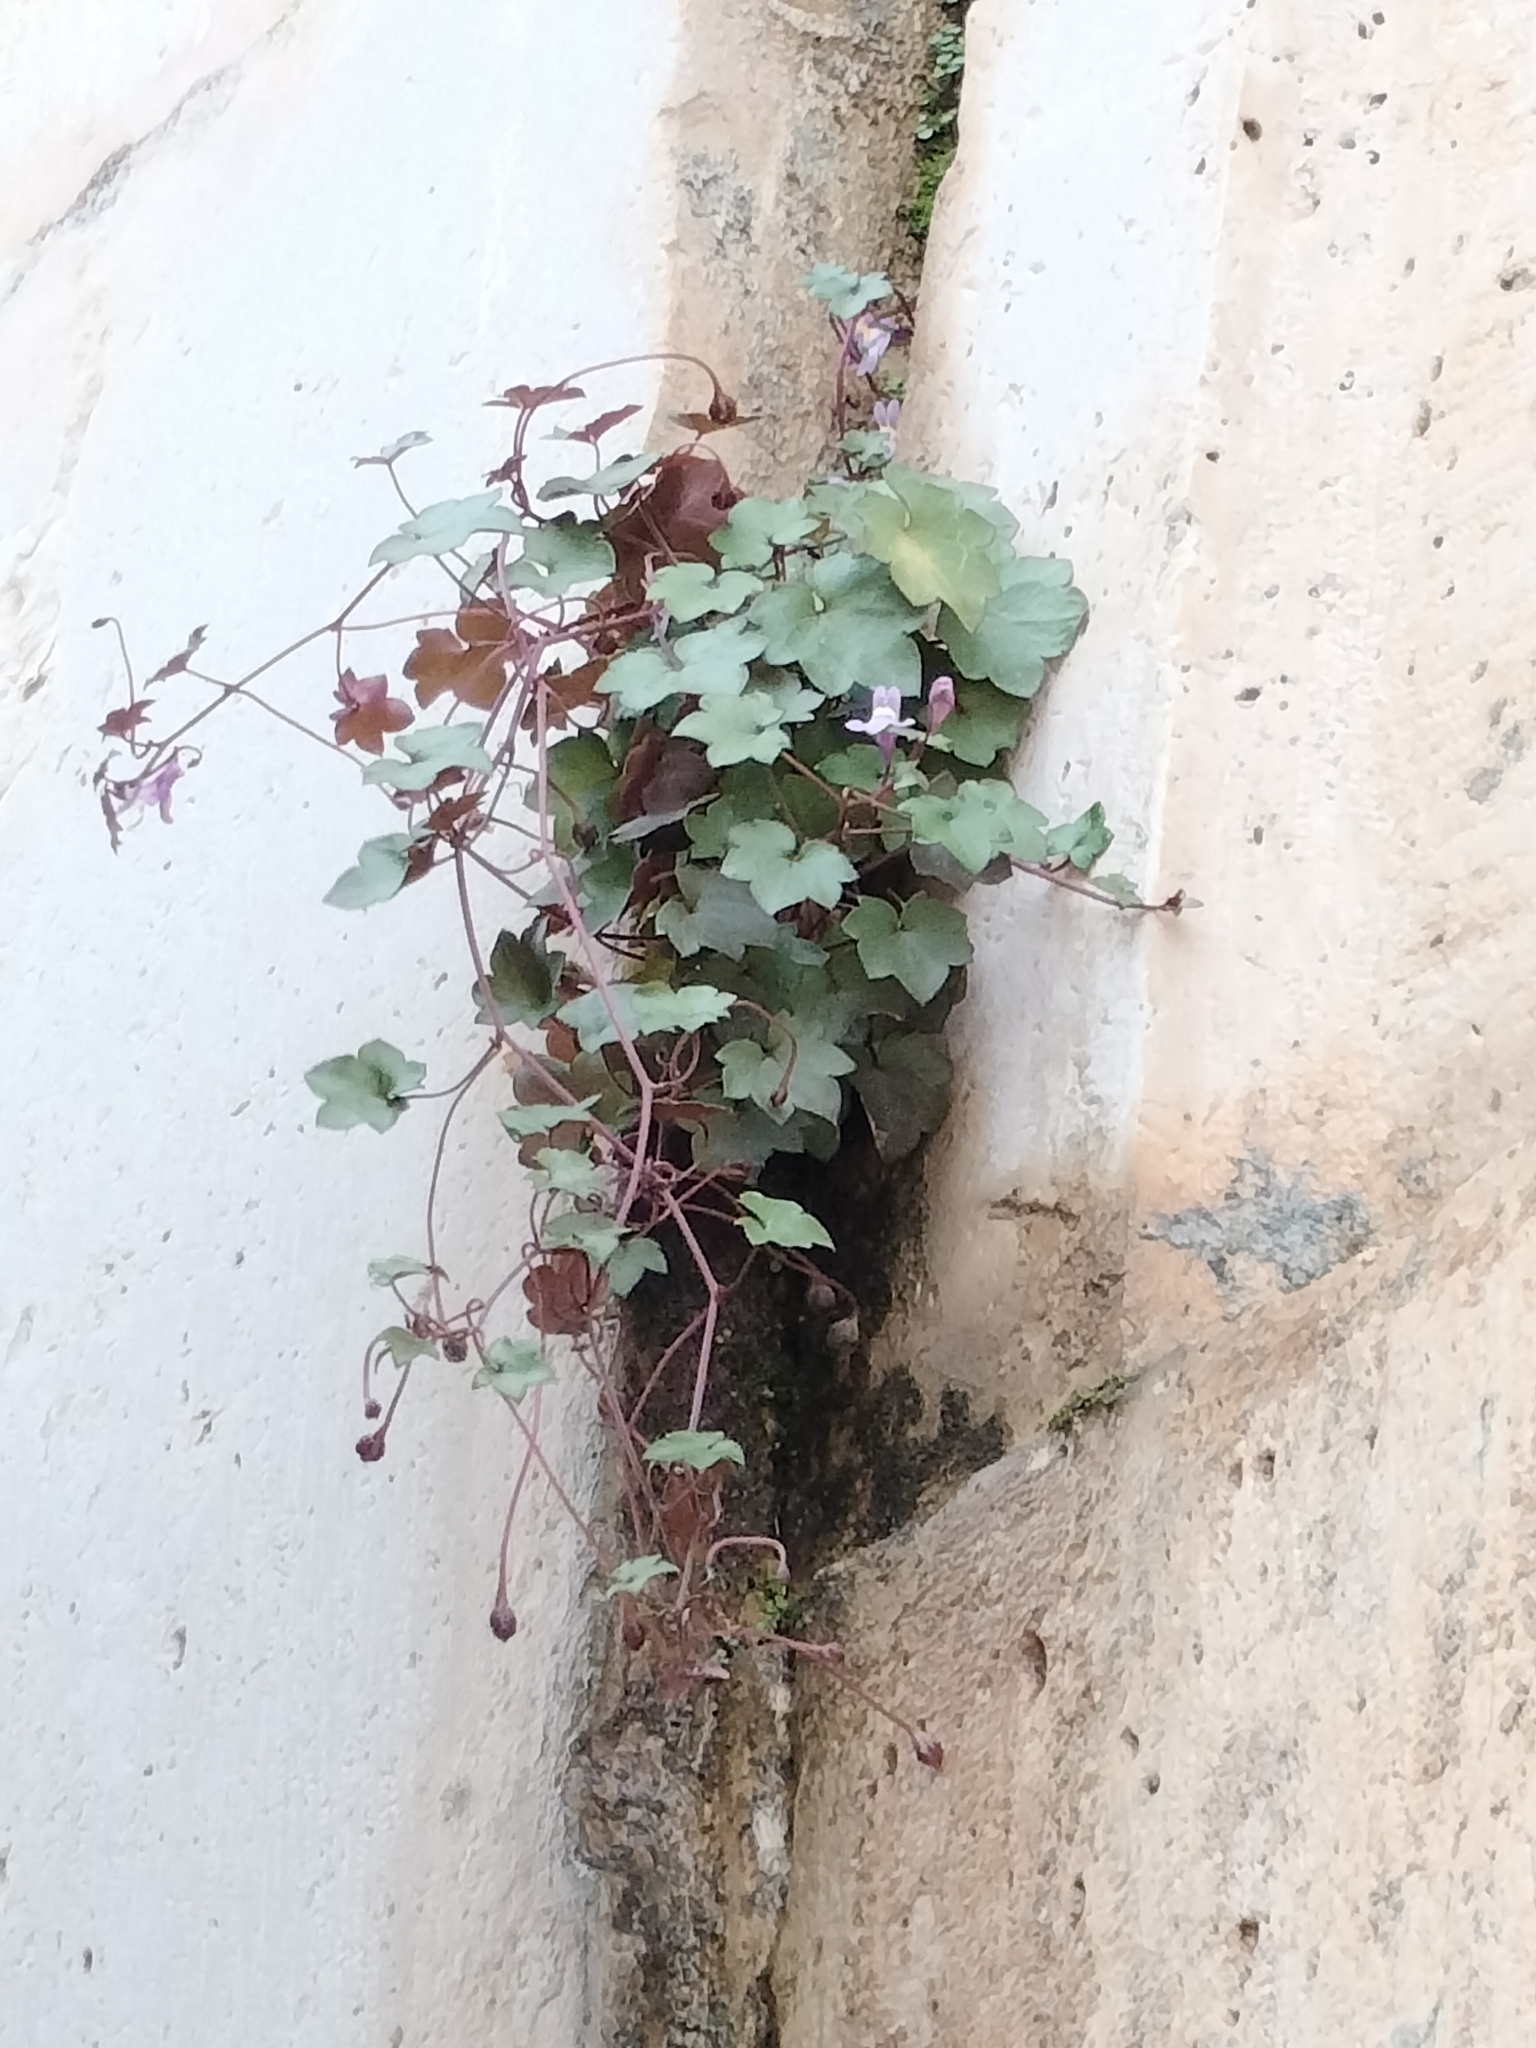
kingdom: Plantae
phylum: Tracheophyta
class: Magnoliopsida
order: Lamiales
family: Plantaginaceae
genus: Cymbalaria
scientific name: Cymbalaria muralis
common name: Ivy-leaved toadflax
